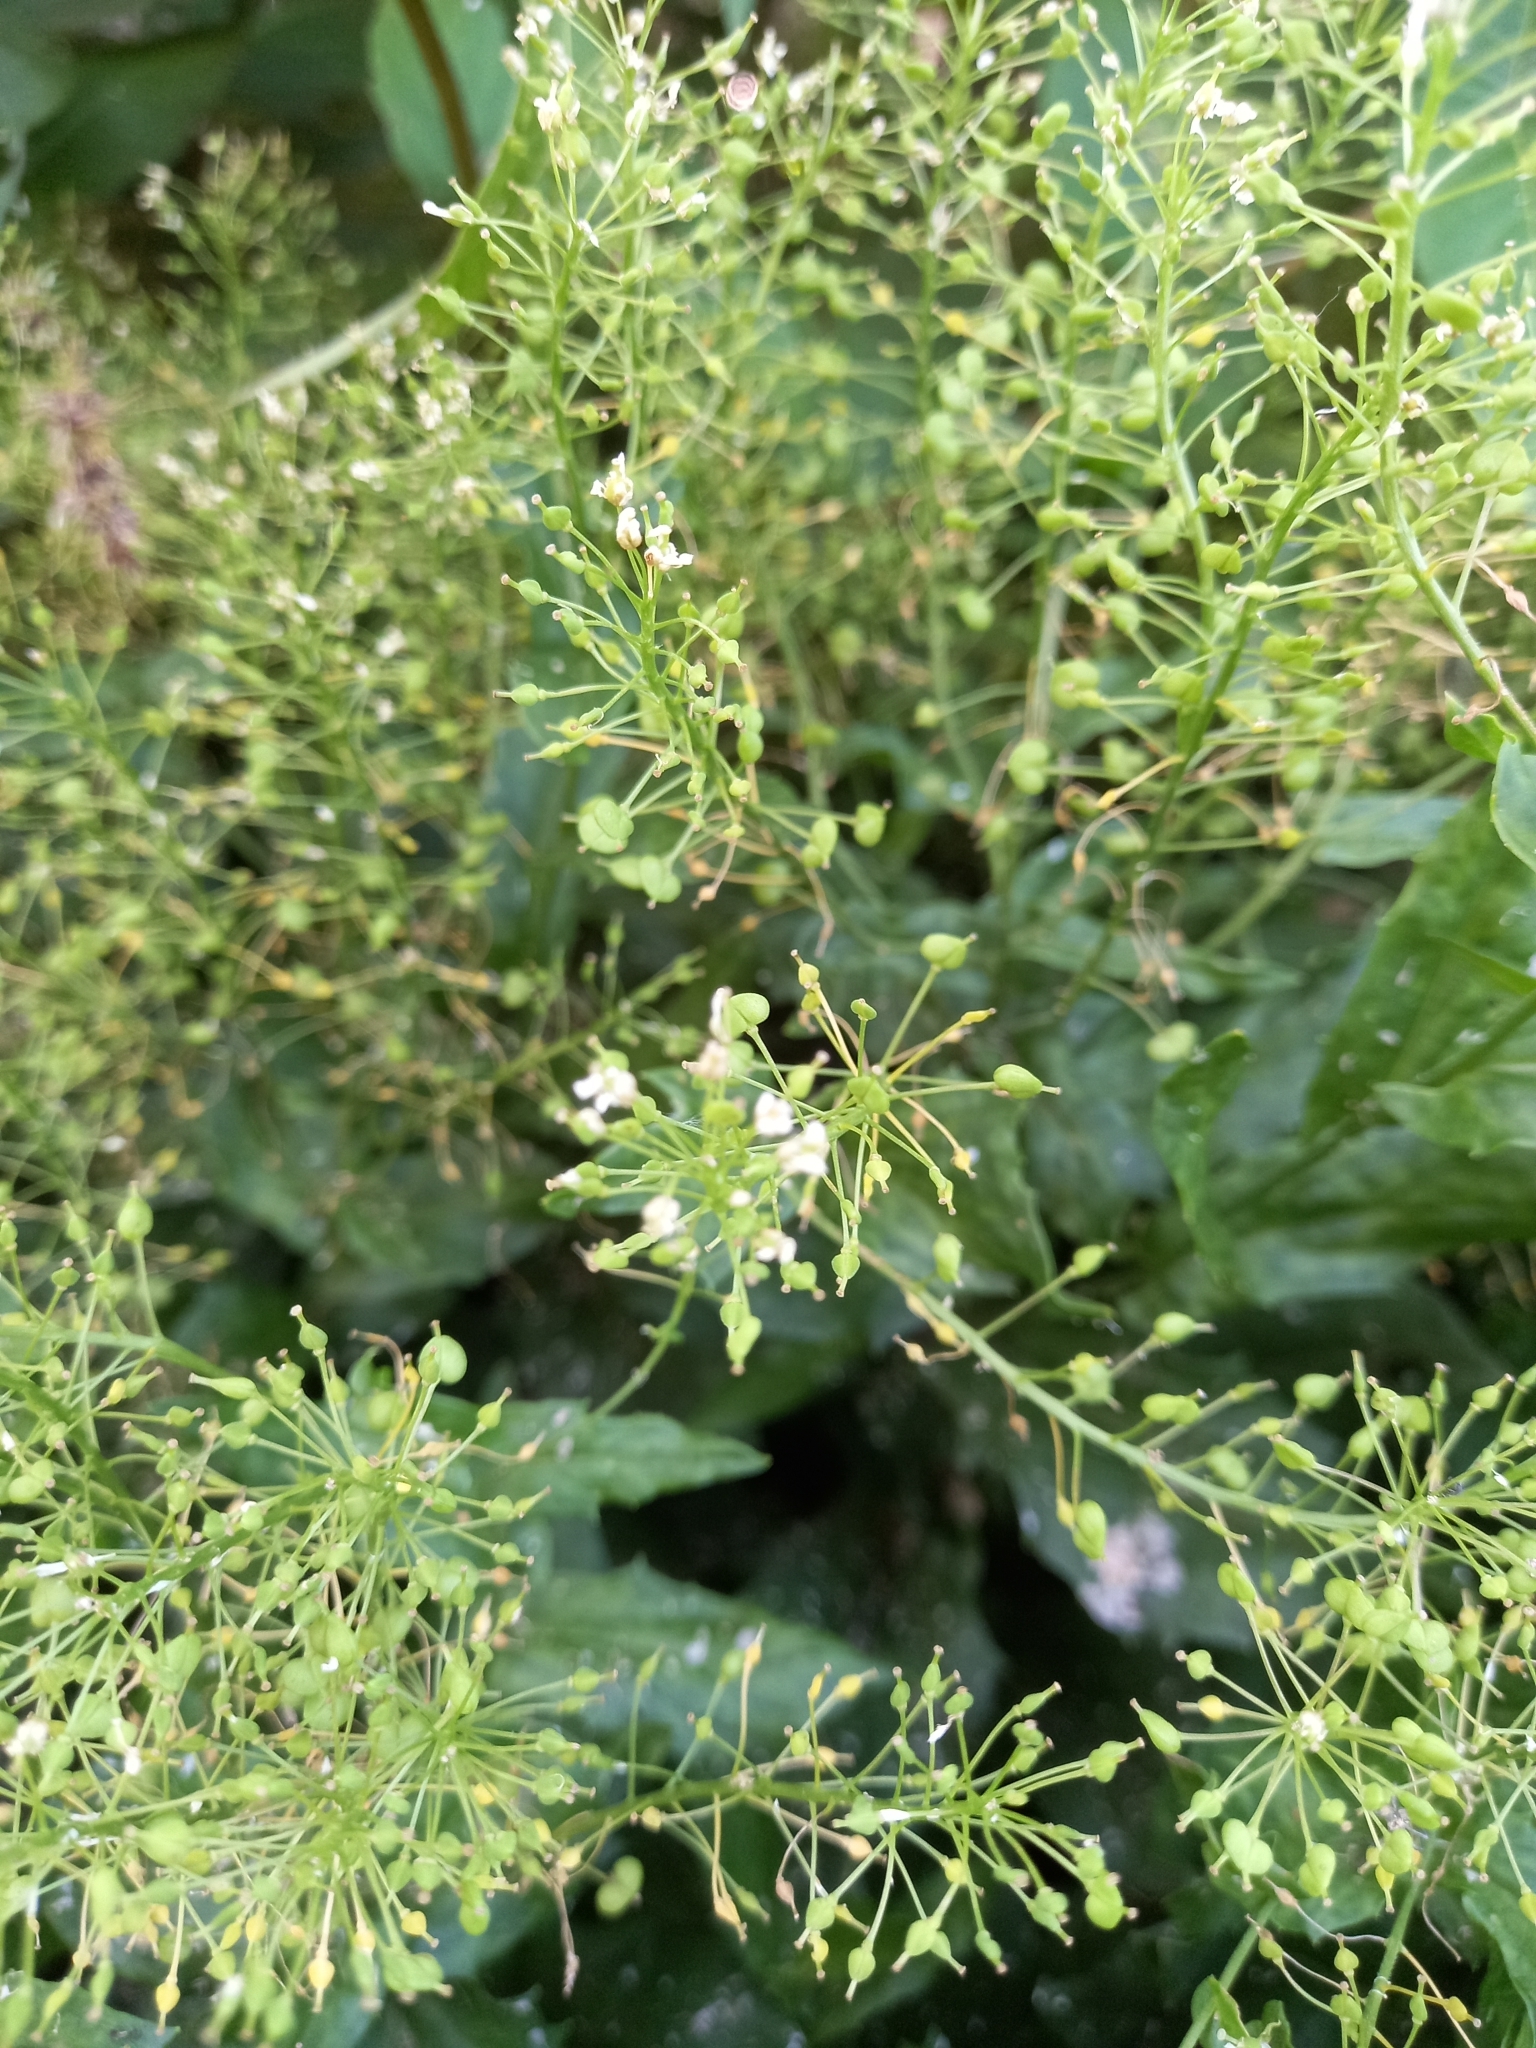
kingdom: Plantae
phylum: Tracheophyta
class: Magnoliopsida
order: Brassicales
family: Brassicaceae
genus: Lepidium
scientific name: Lepidium draba
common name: Hoary cress
